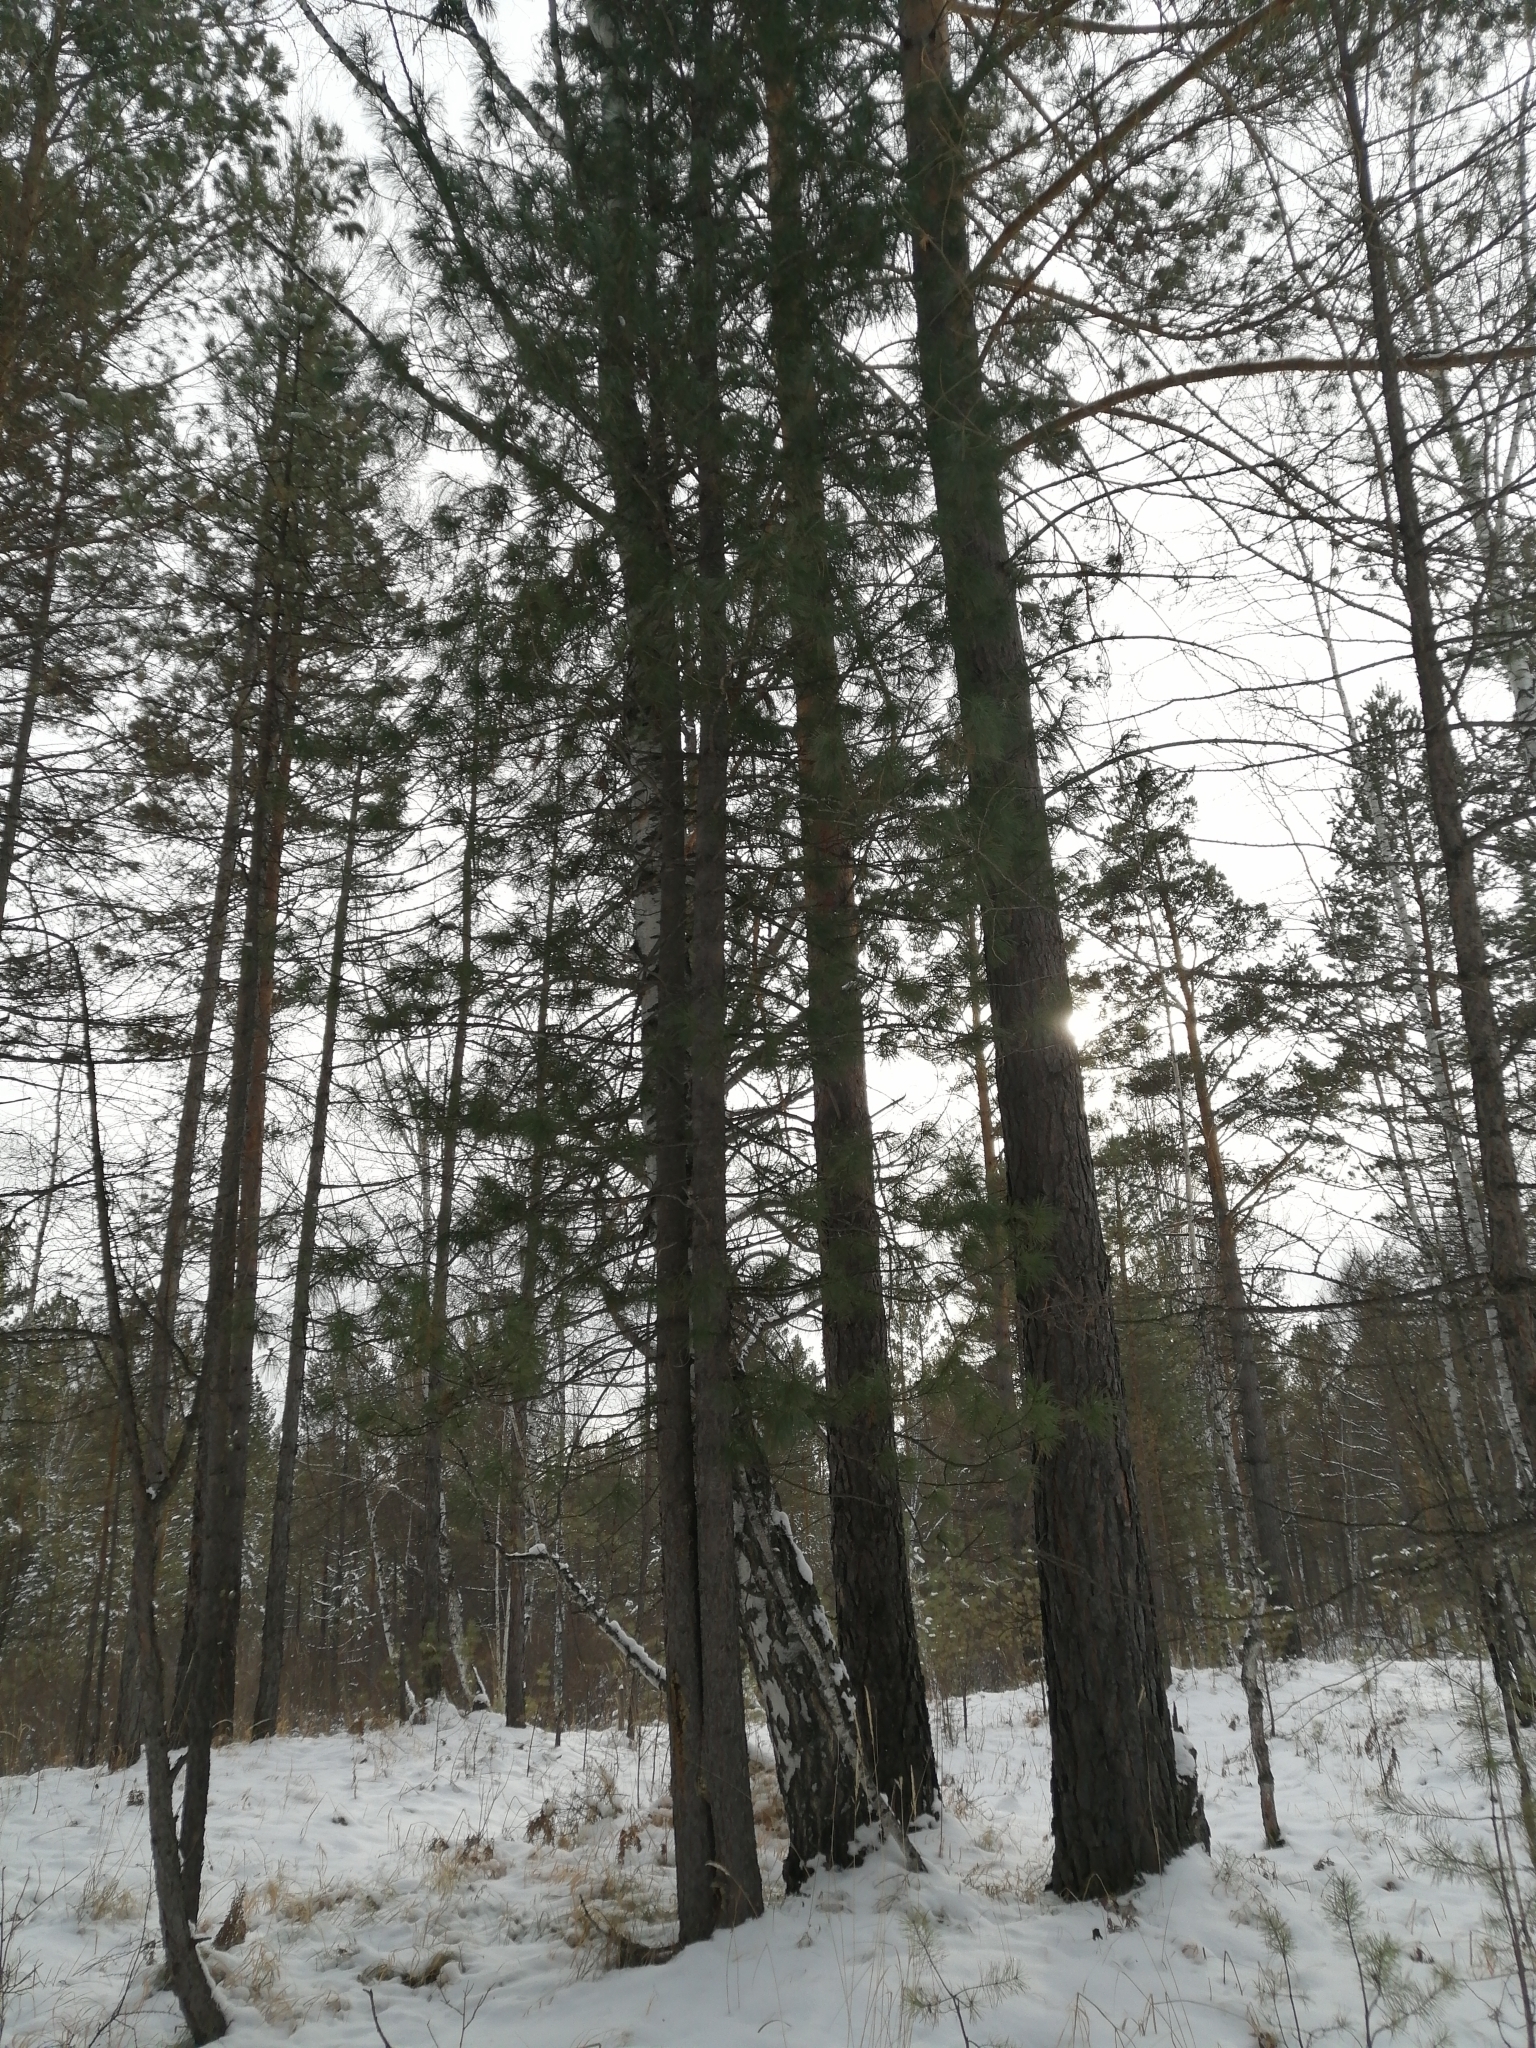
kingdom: Plantae
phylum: Tracheophyta
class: Pinopsida
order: Pinales
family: Pinaceae
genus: Pinus
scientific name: Pinus sibirica
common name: Siberian pine
